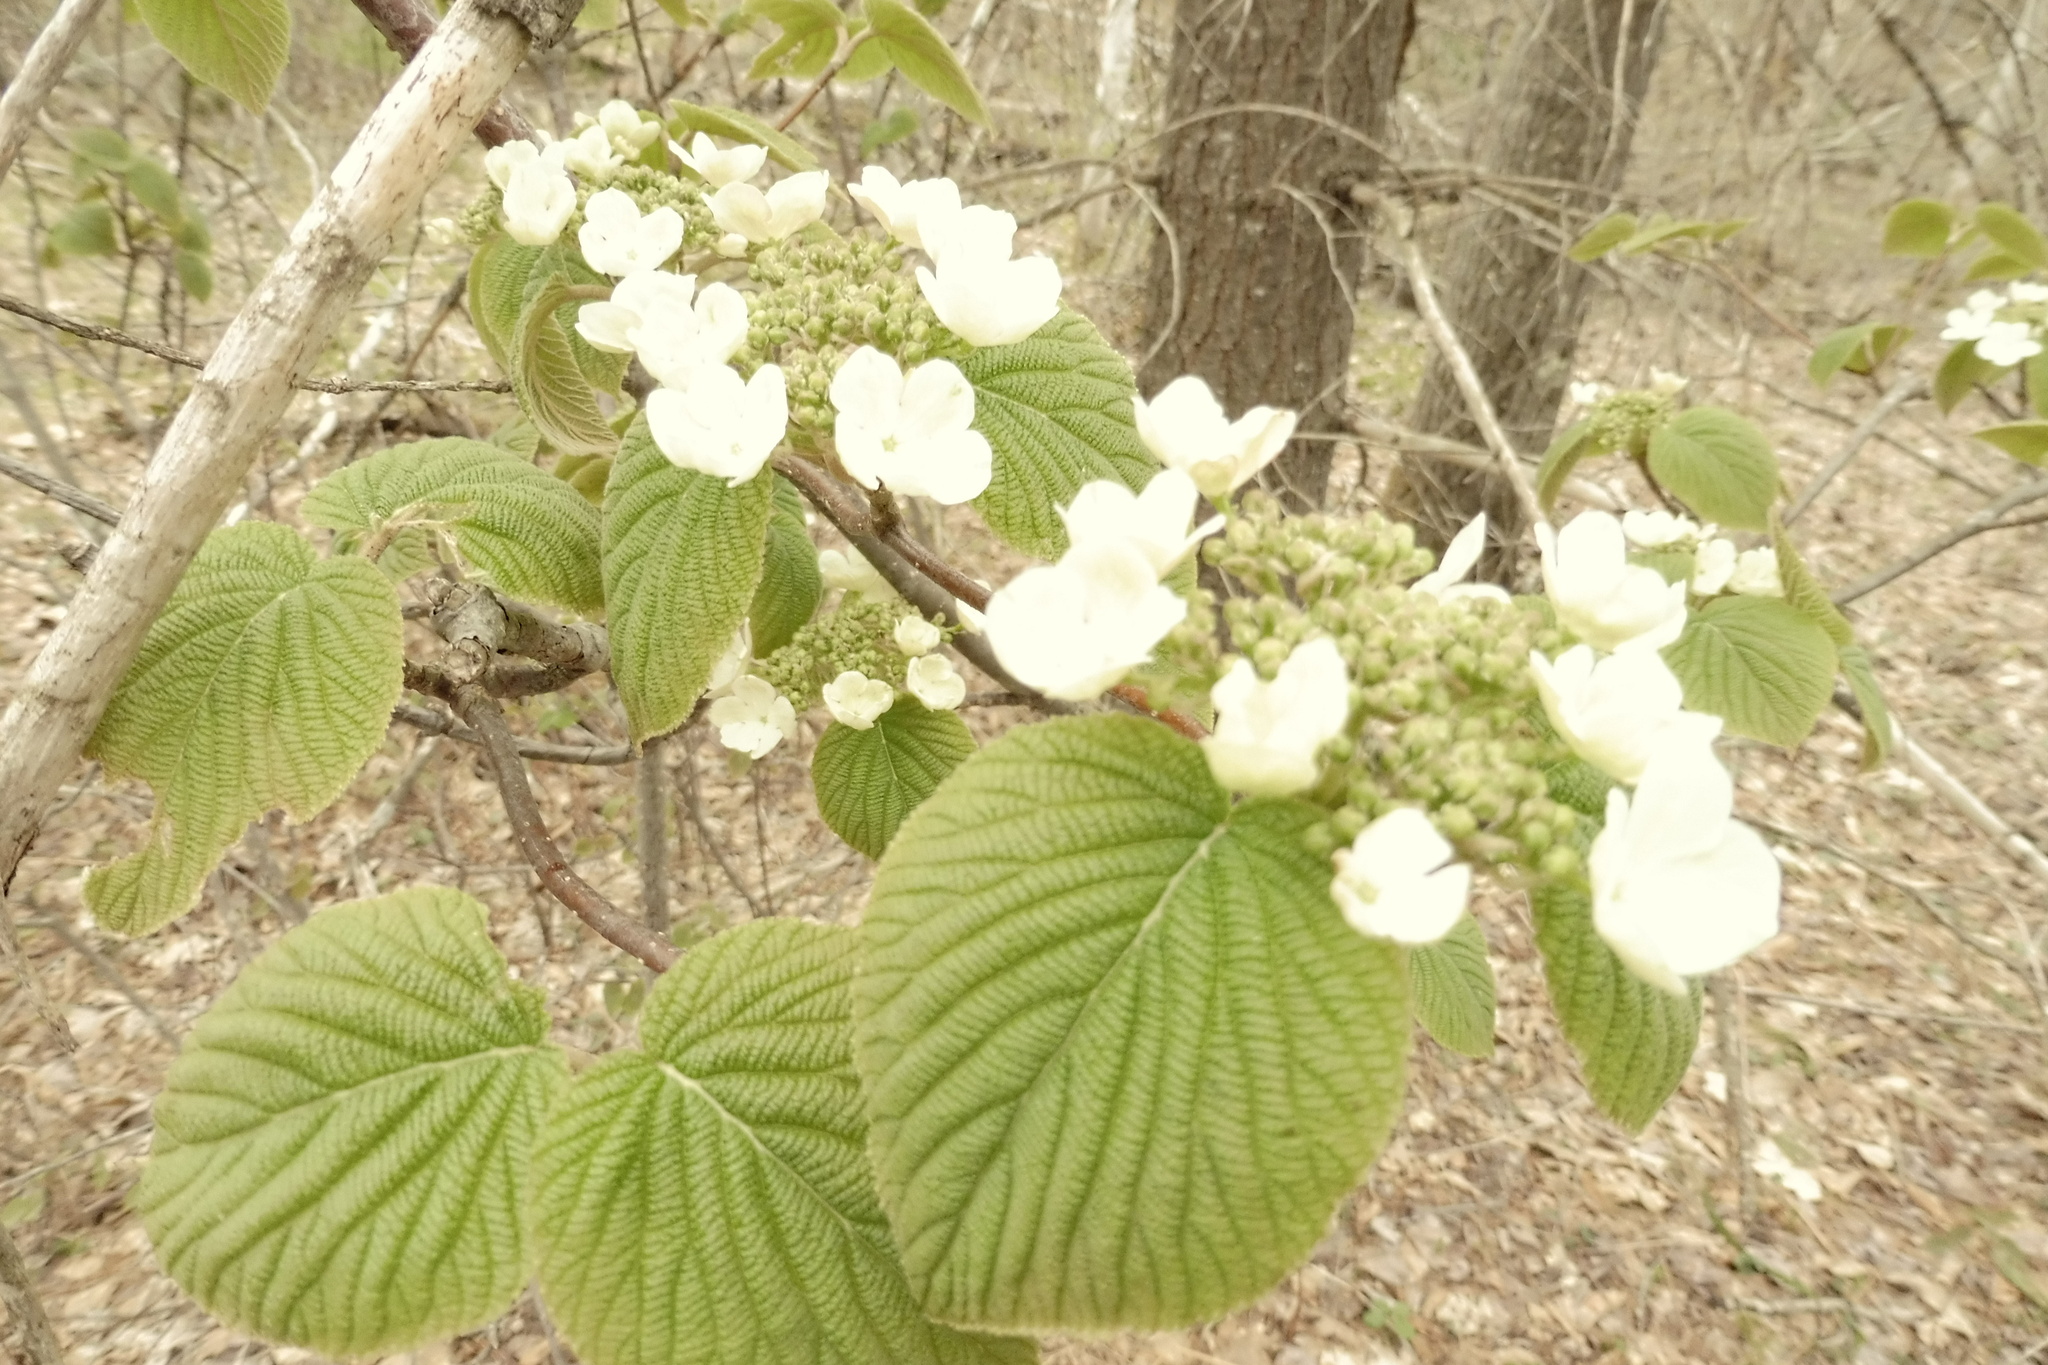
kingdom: Plantae
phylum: Tracheophyta
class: Magnoliopsida
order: Dipsacales
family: Viburnaceae
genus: Viburnum
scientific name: Viburnum lantanoides
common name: Hobblebush
